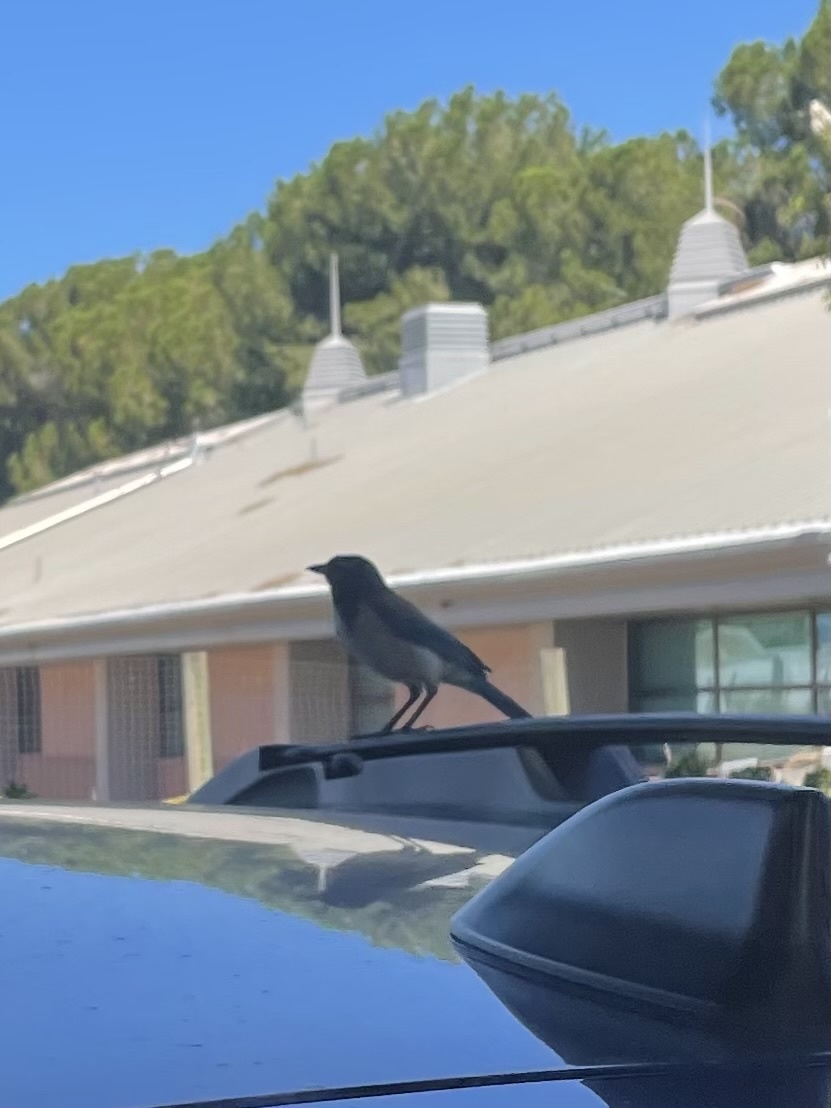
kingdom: Animalia
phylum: Chordata
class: Aves
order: Passeriformes
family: Corvidae
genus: Aphelocoma
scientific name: Aphelocoma californica
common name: California scrub-jay
